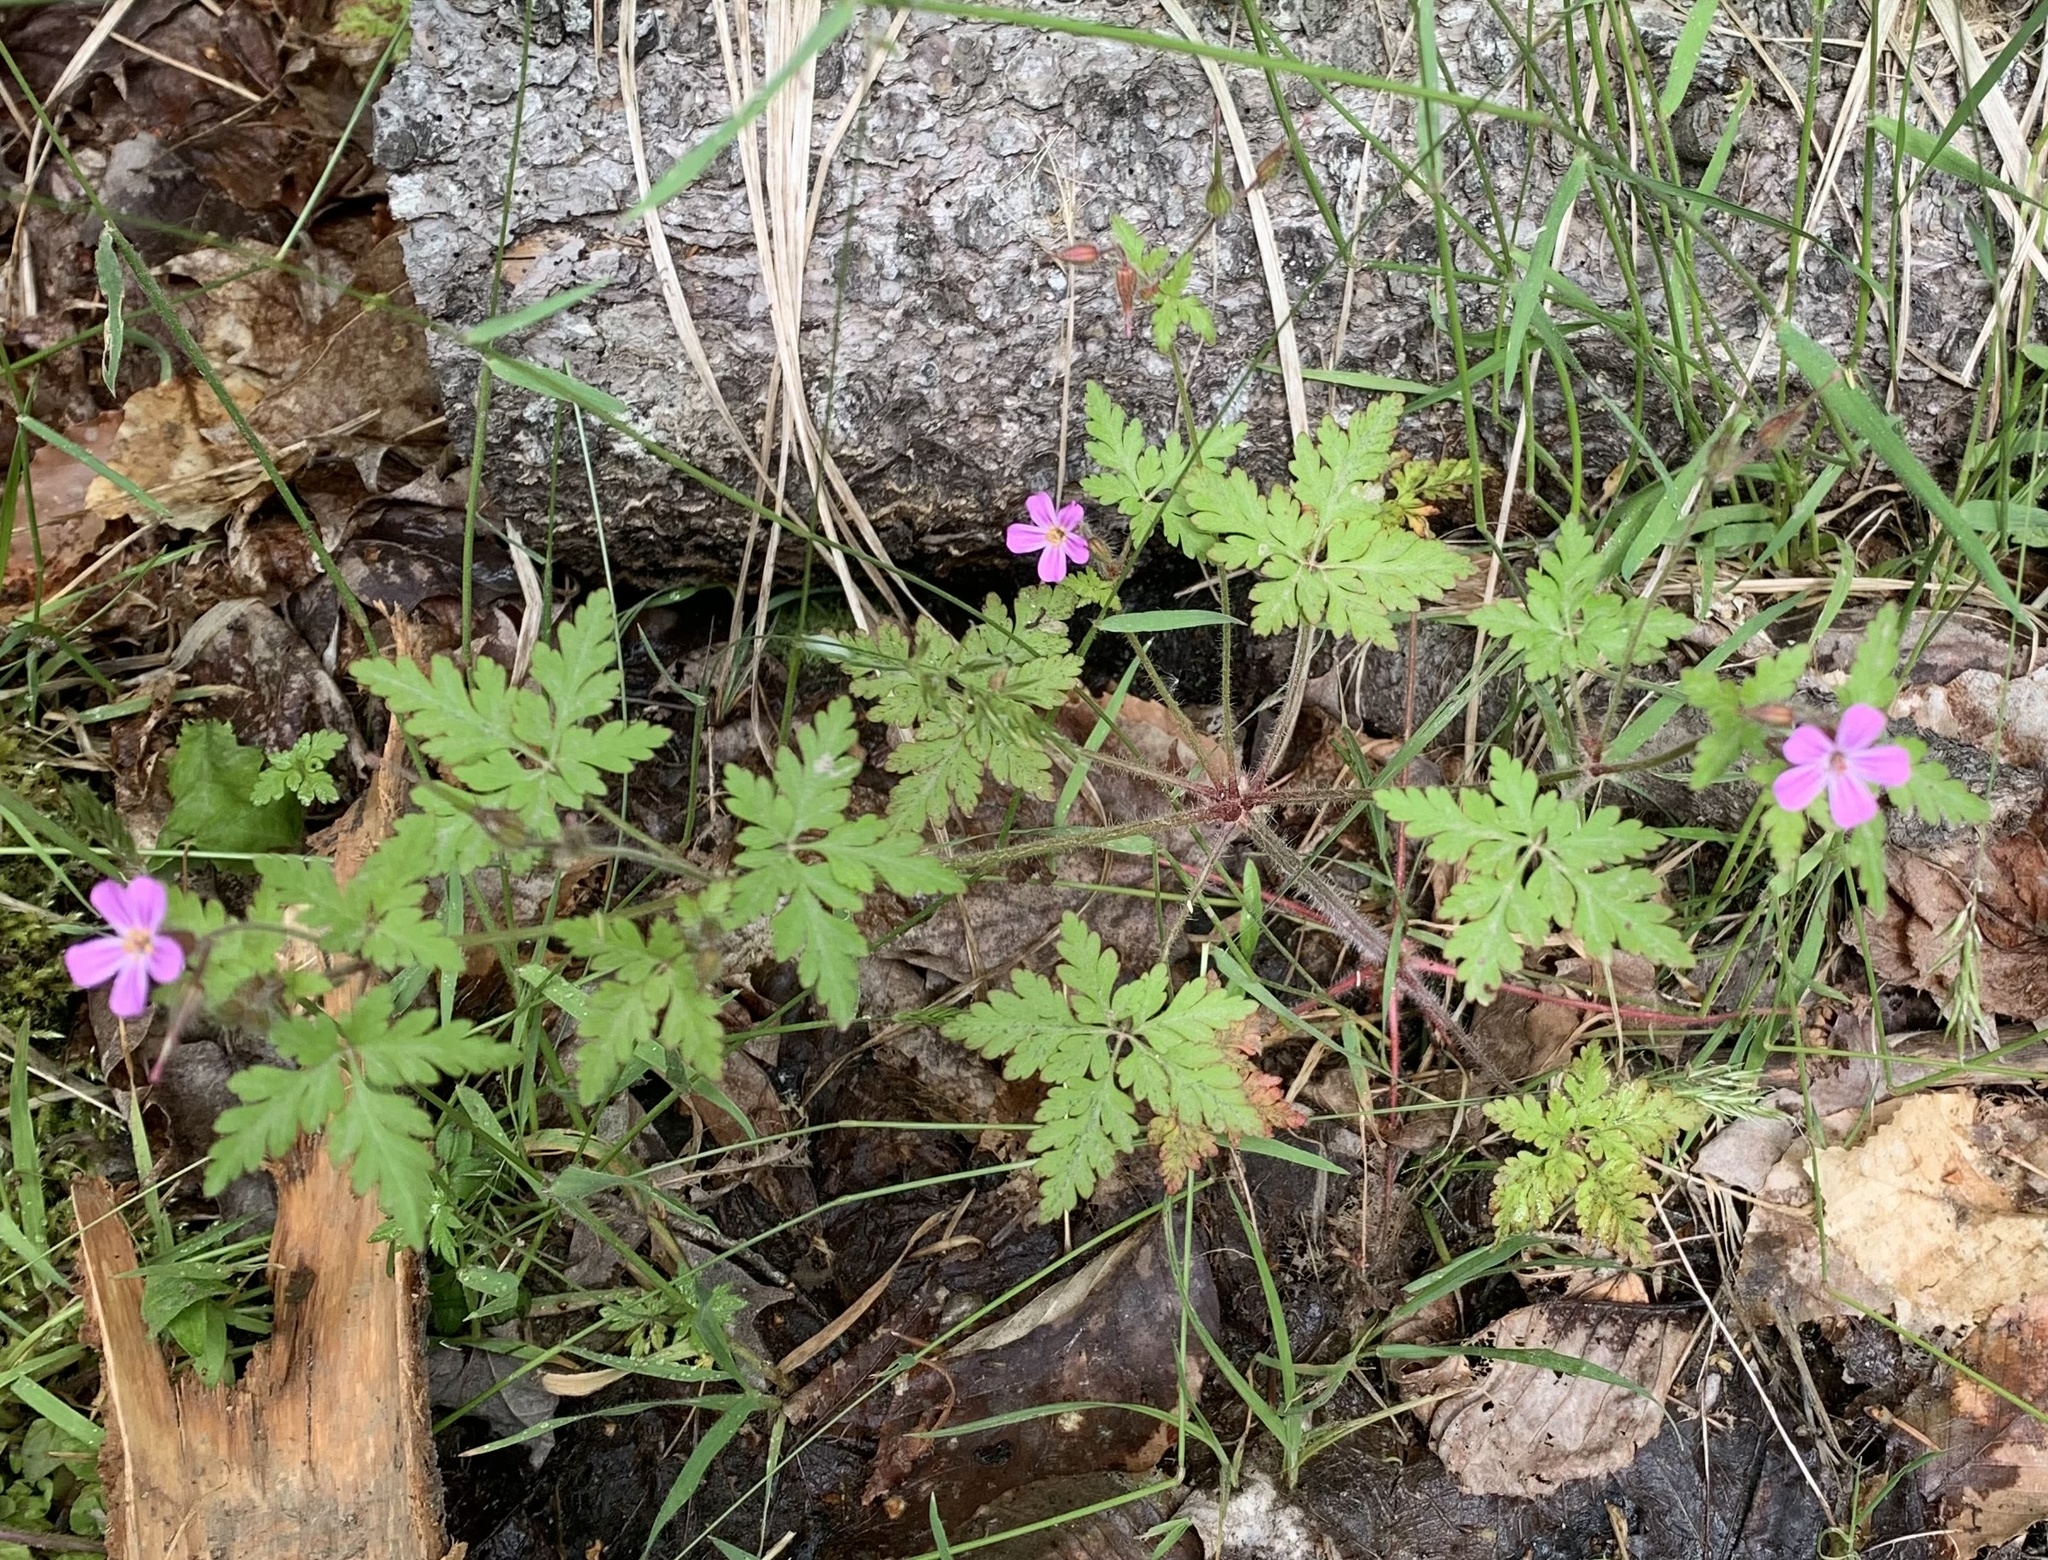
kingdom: Plantae
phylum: Tracheophyta
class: Magnoliopsida
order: Geraniales
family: Geraniaceae
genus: Geranium
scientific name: Geranium robertianum
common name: Herb-robert
